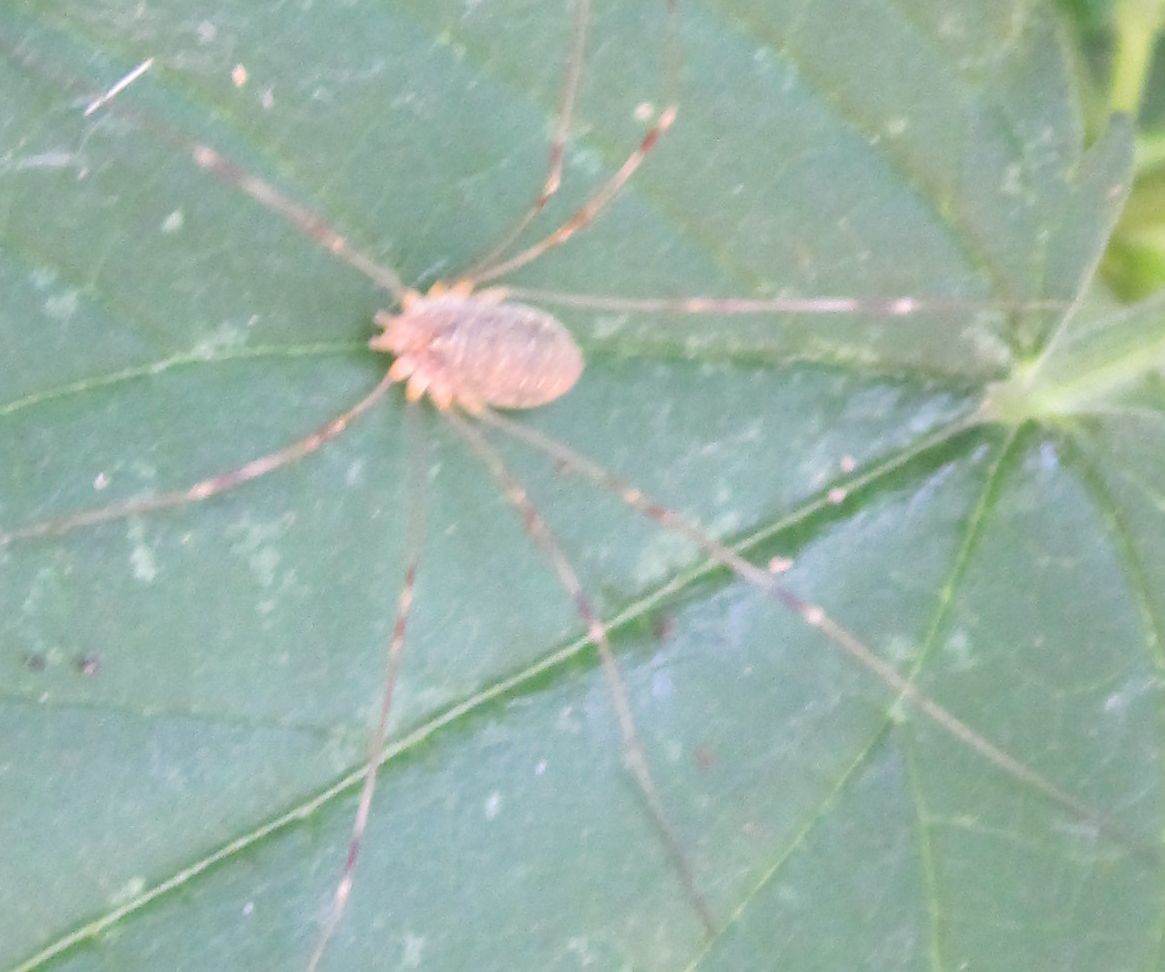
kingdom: Animalia
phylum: Arthropoda
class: Arachnida
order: Opiliones
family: Phalangiidae
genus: Opilio
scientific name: Opilio canestrinii
